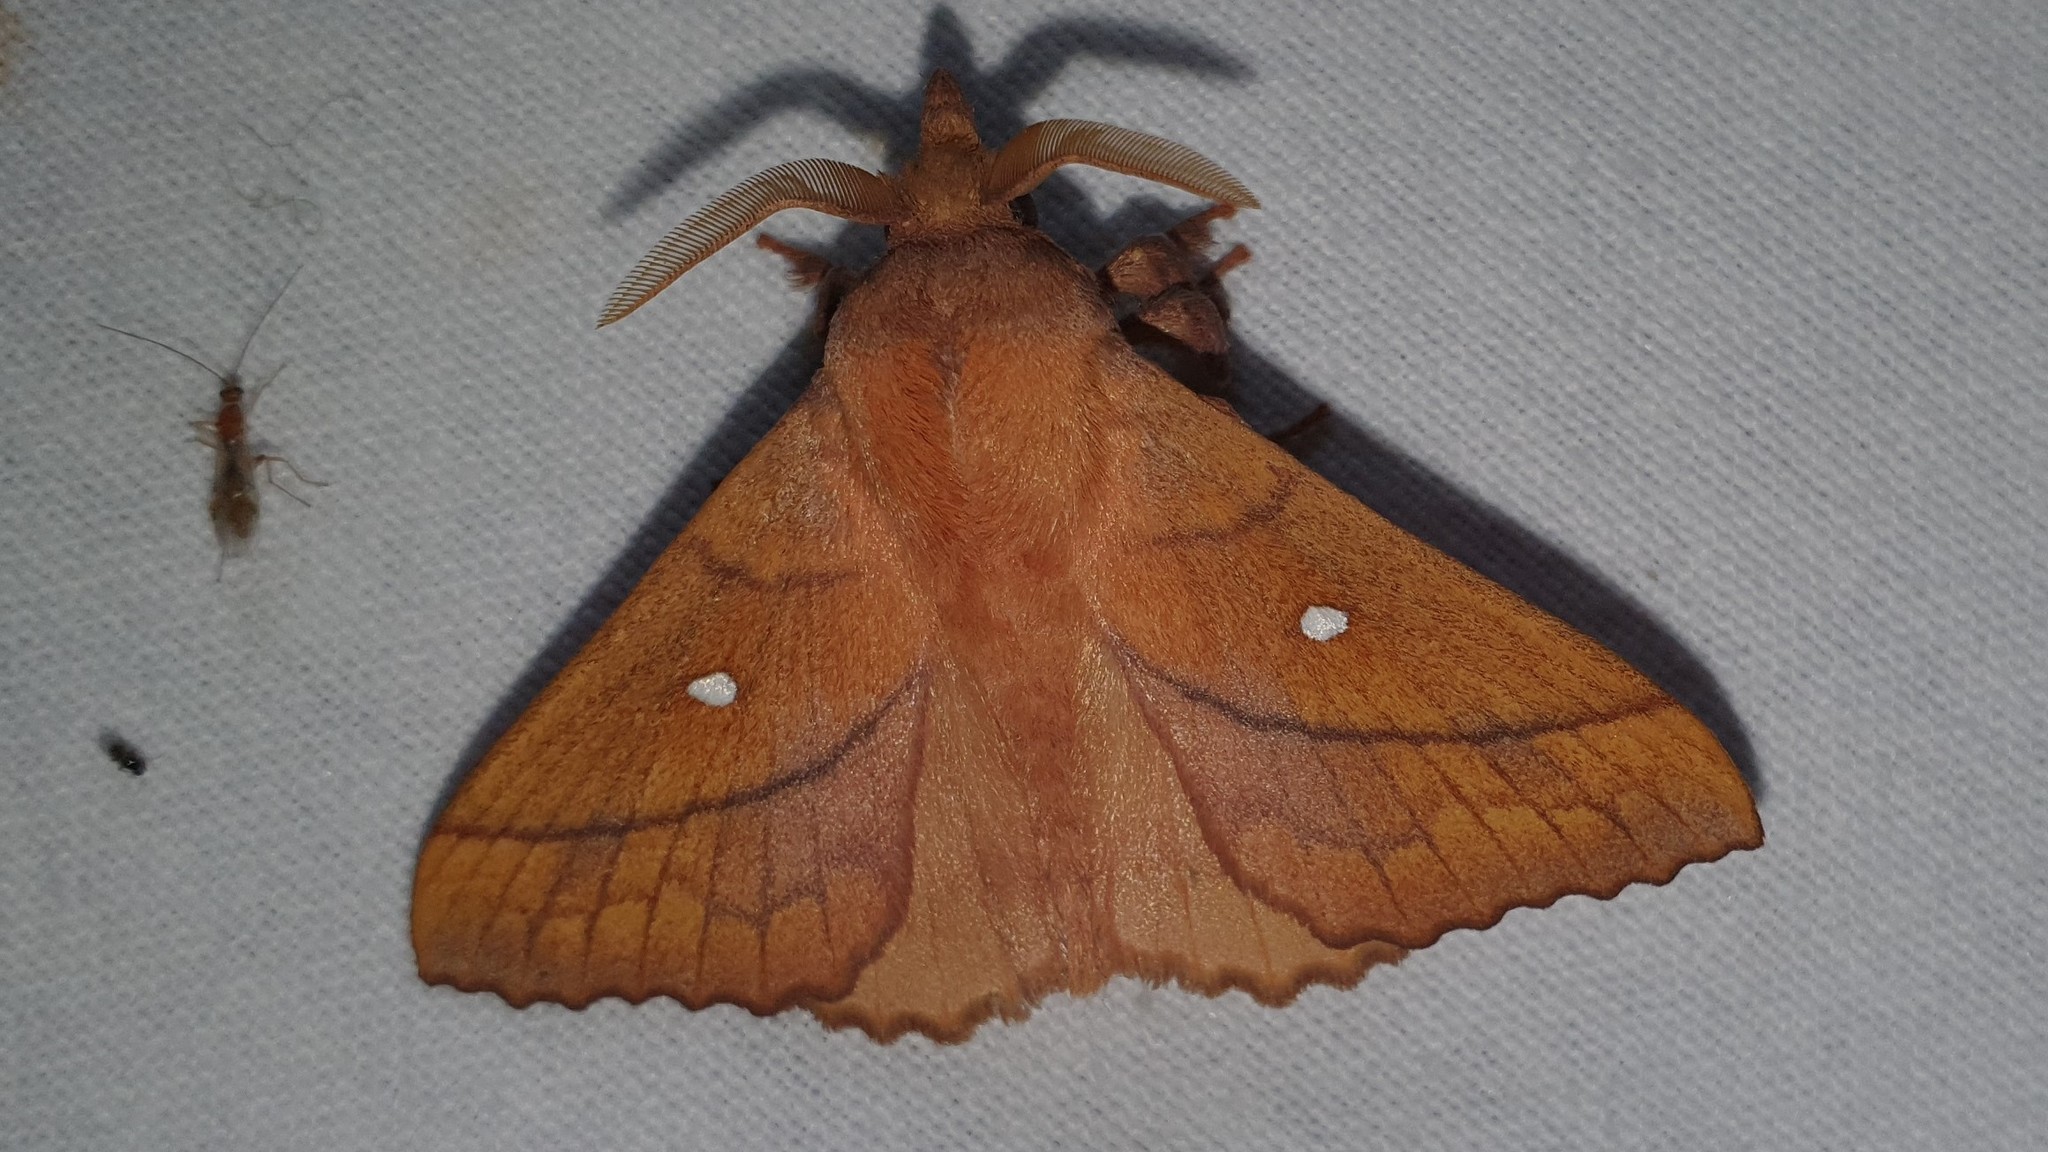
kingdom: Animalia
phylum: Arthropoda
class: Insecta
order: Lepidoptera
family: Lasiocampidae
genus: Odonestis
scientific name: Odonestis pruni
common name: Plum lappet
